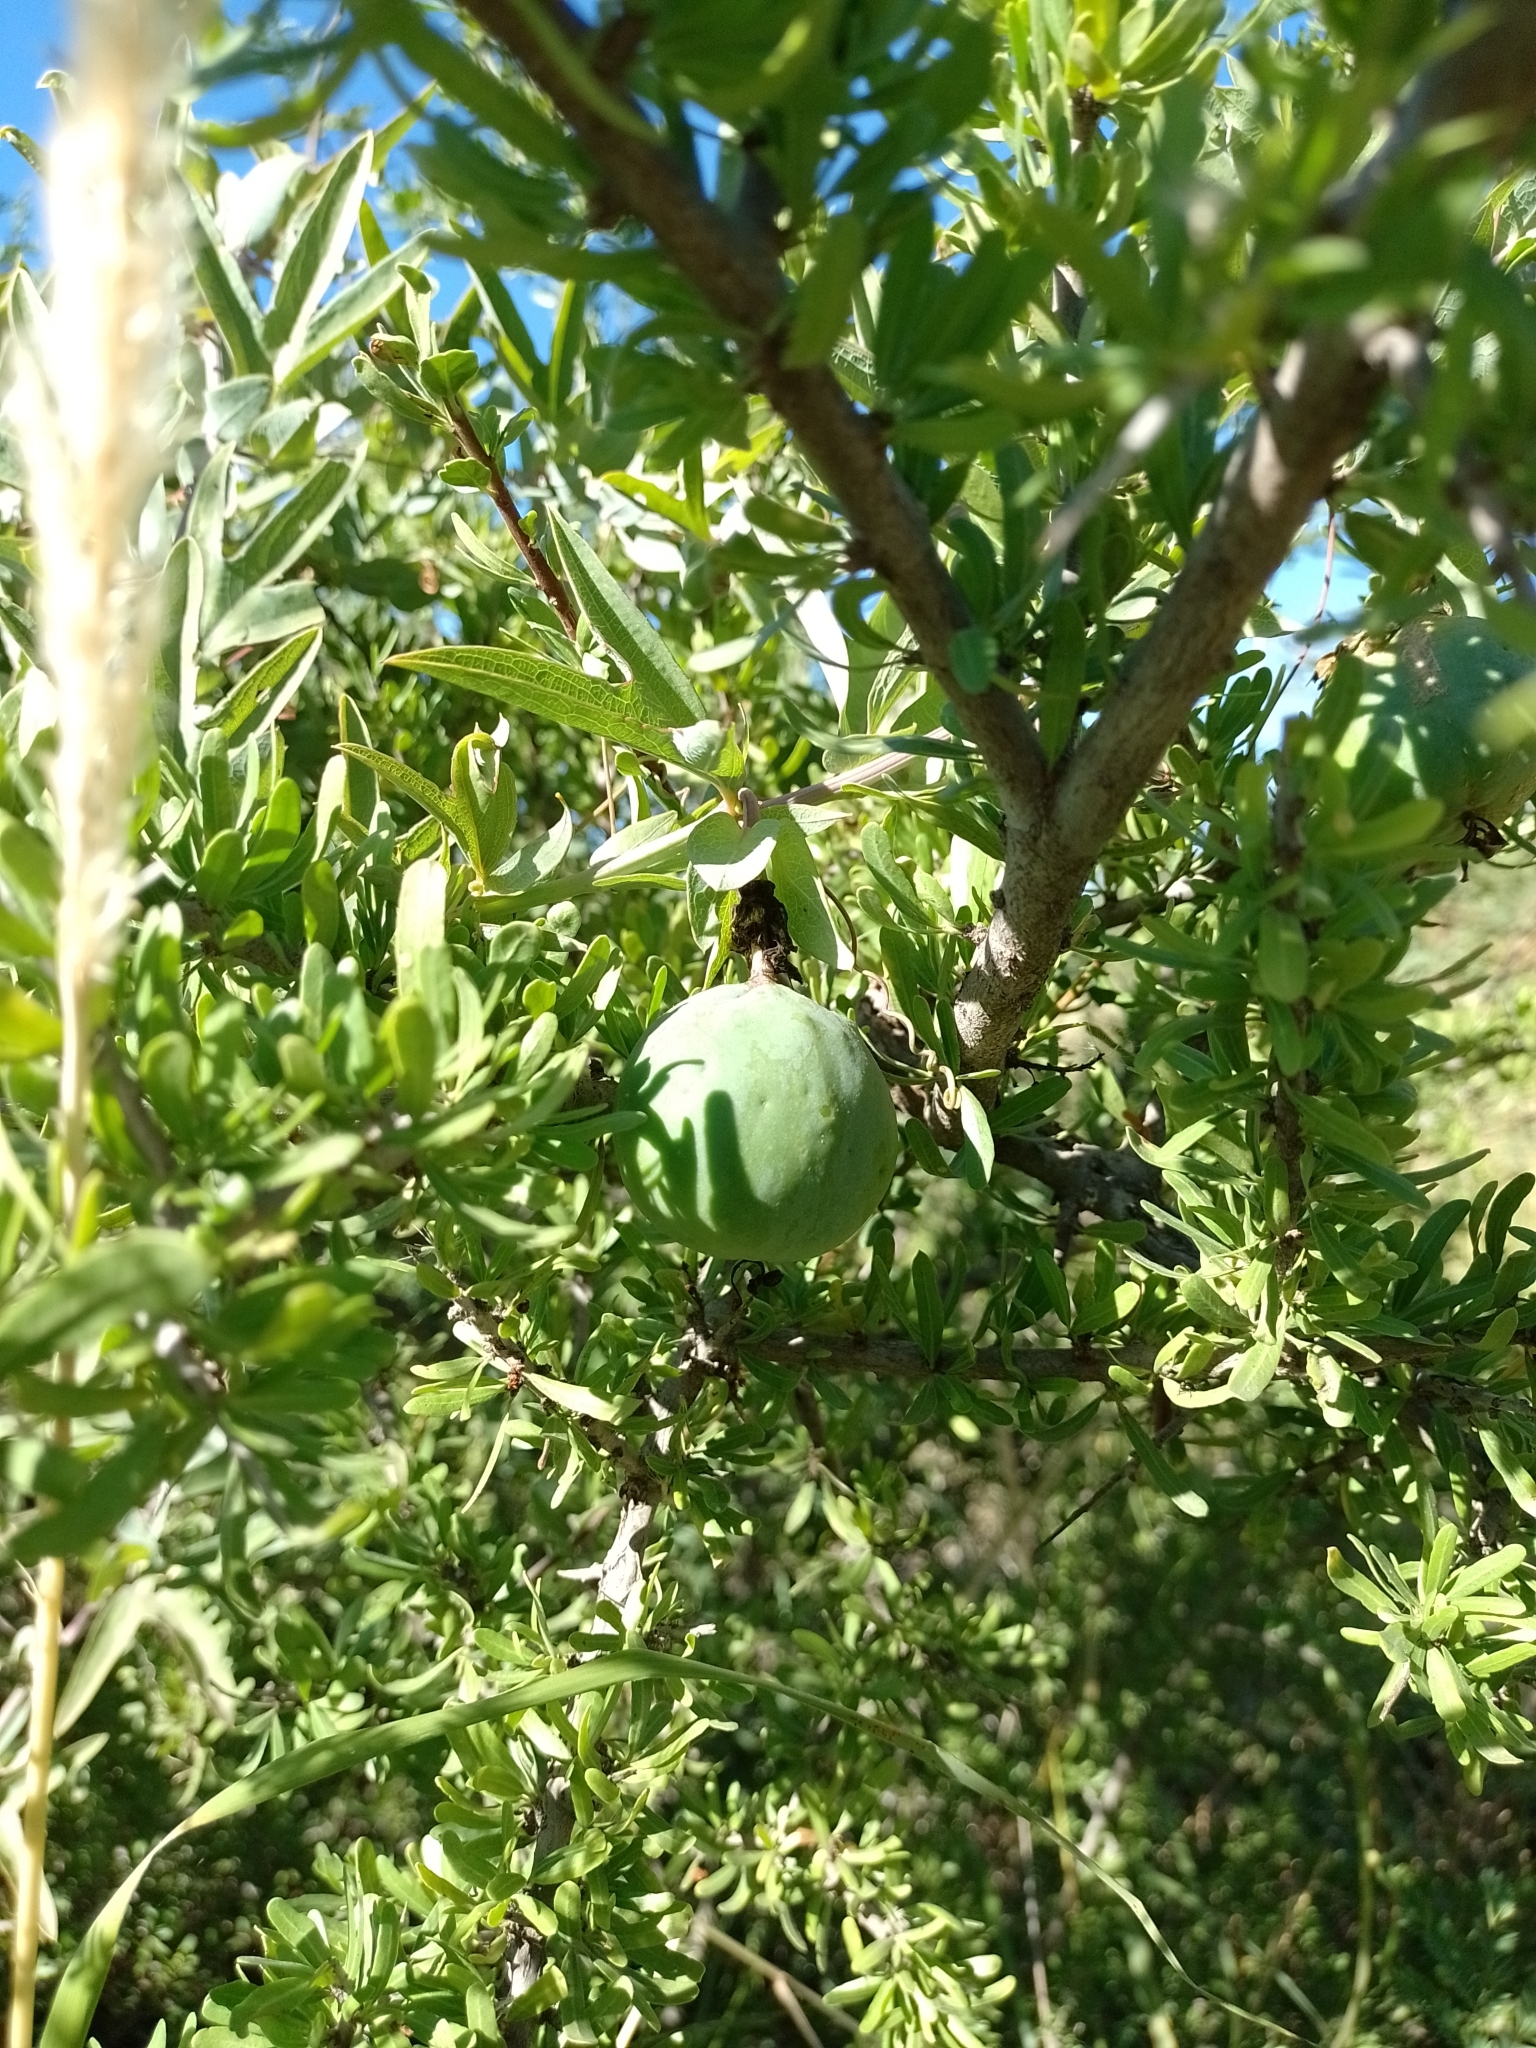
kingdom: Plantae
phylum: Tracheophyta
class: Magnoliopsida
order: Malpighiales
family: Passifloraceae
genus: Passiflora
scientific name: Passiflora mooreana
